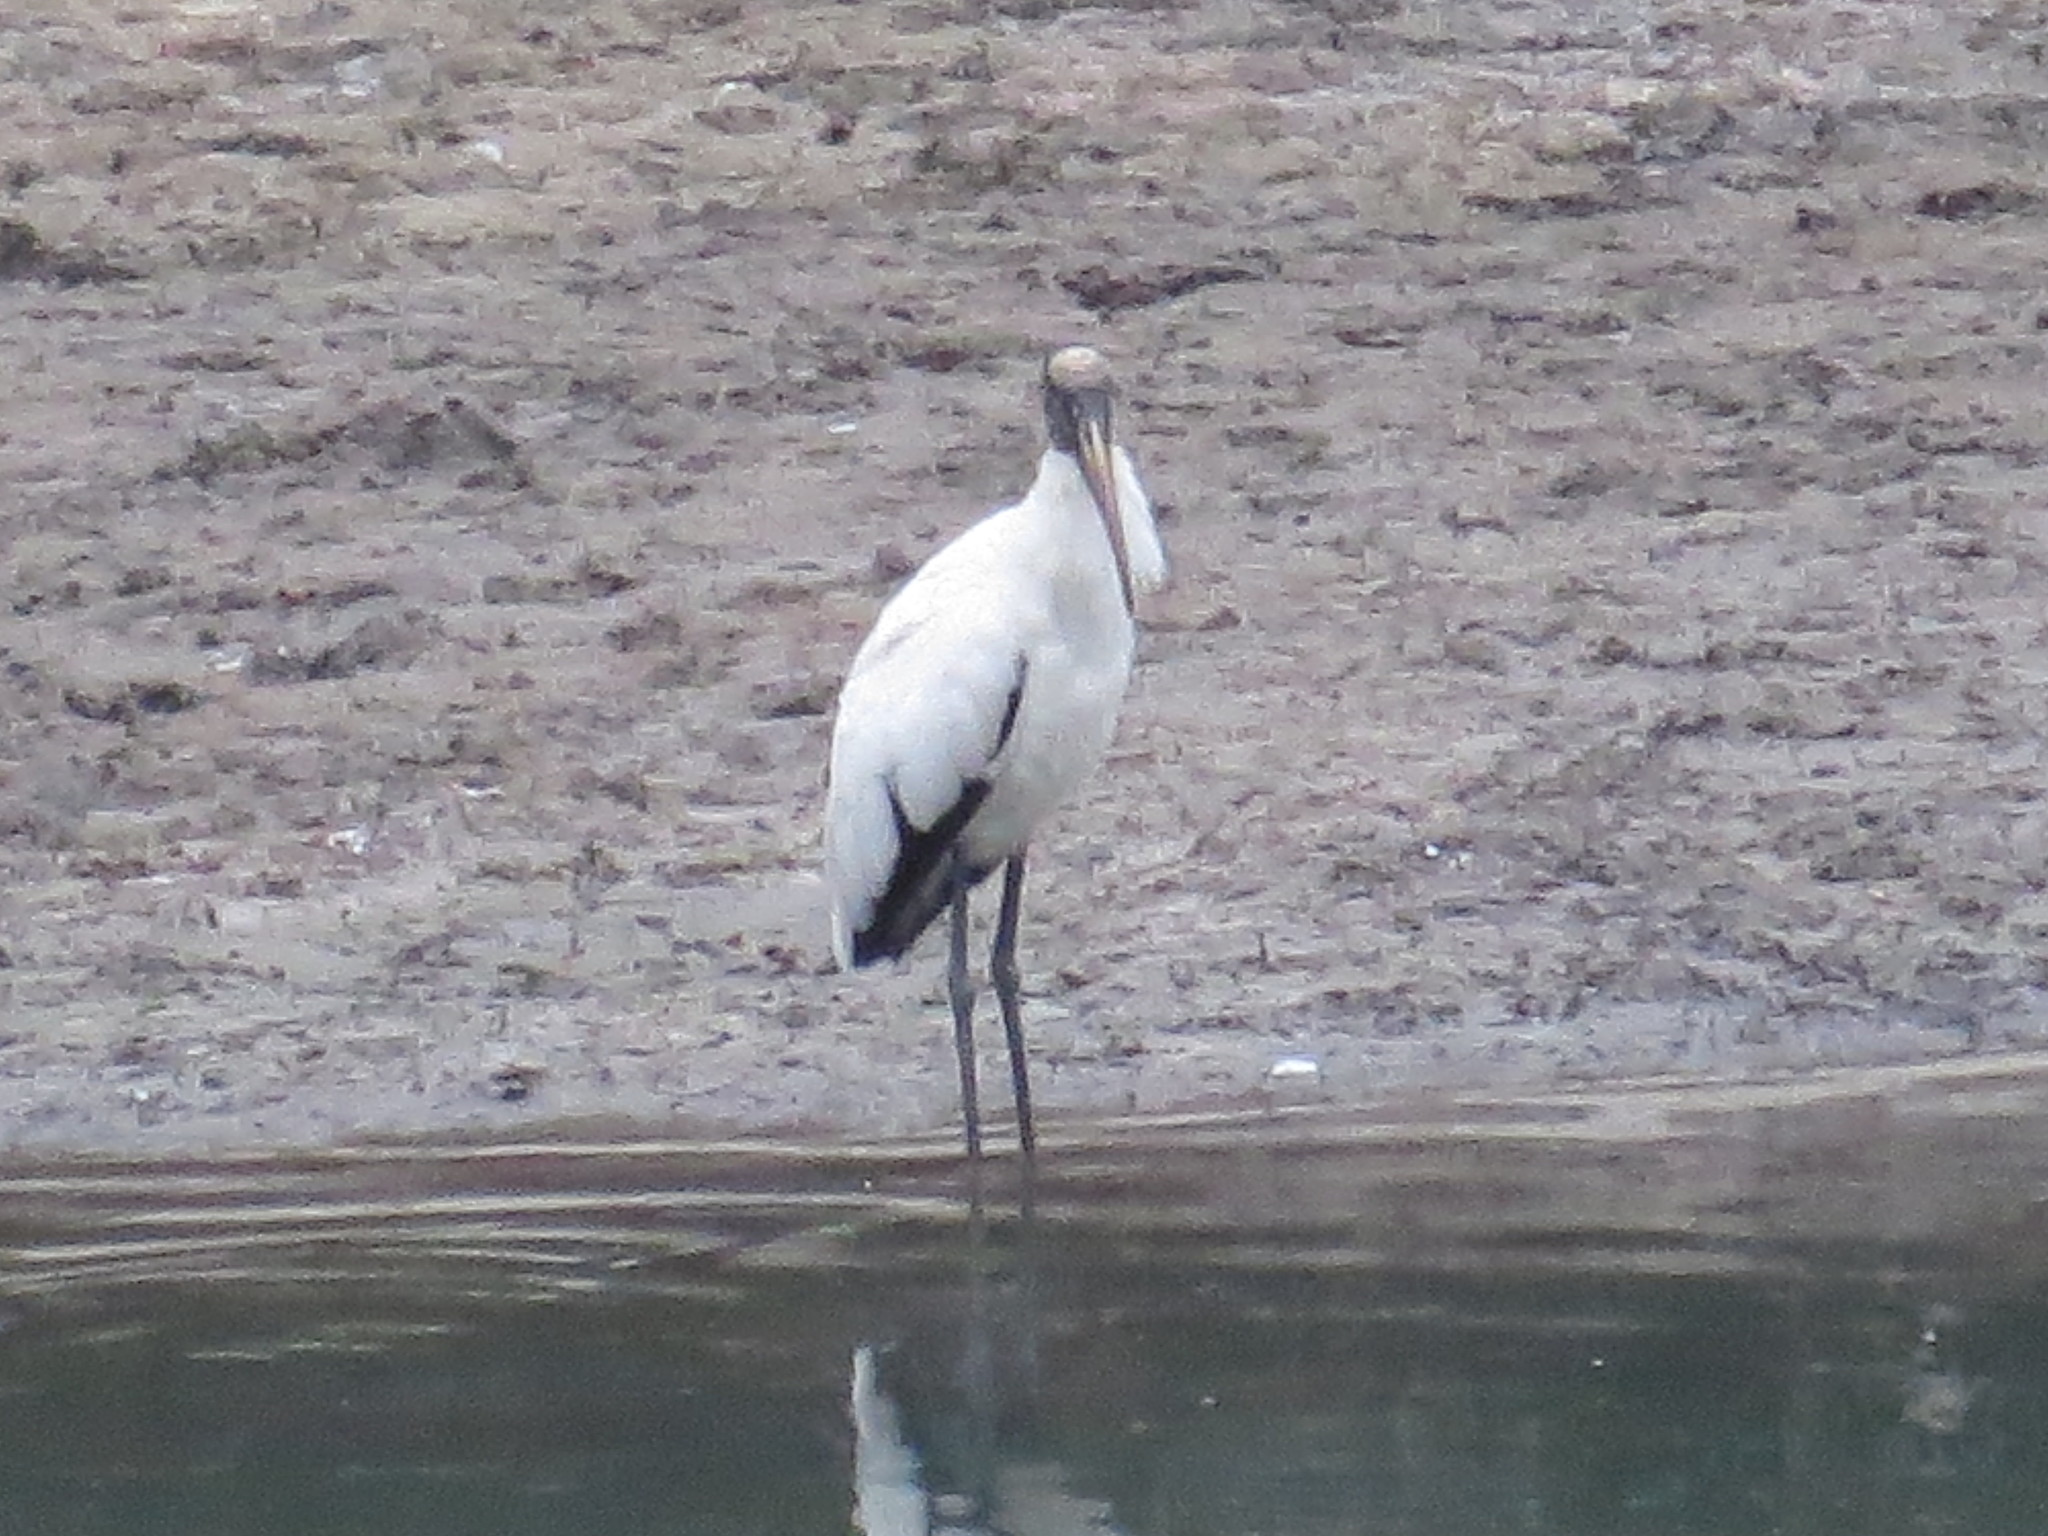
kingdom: Animalia
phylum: Chordata
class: Aves
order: Ciconiiformes
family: Ciconiidae
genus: Mycteria
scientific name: Mycteria americana
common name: Wood stork
